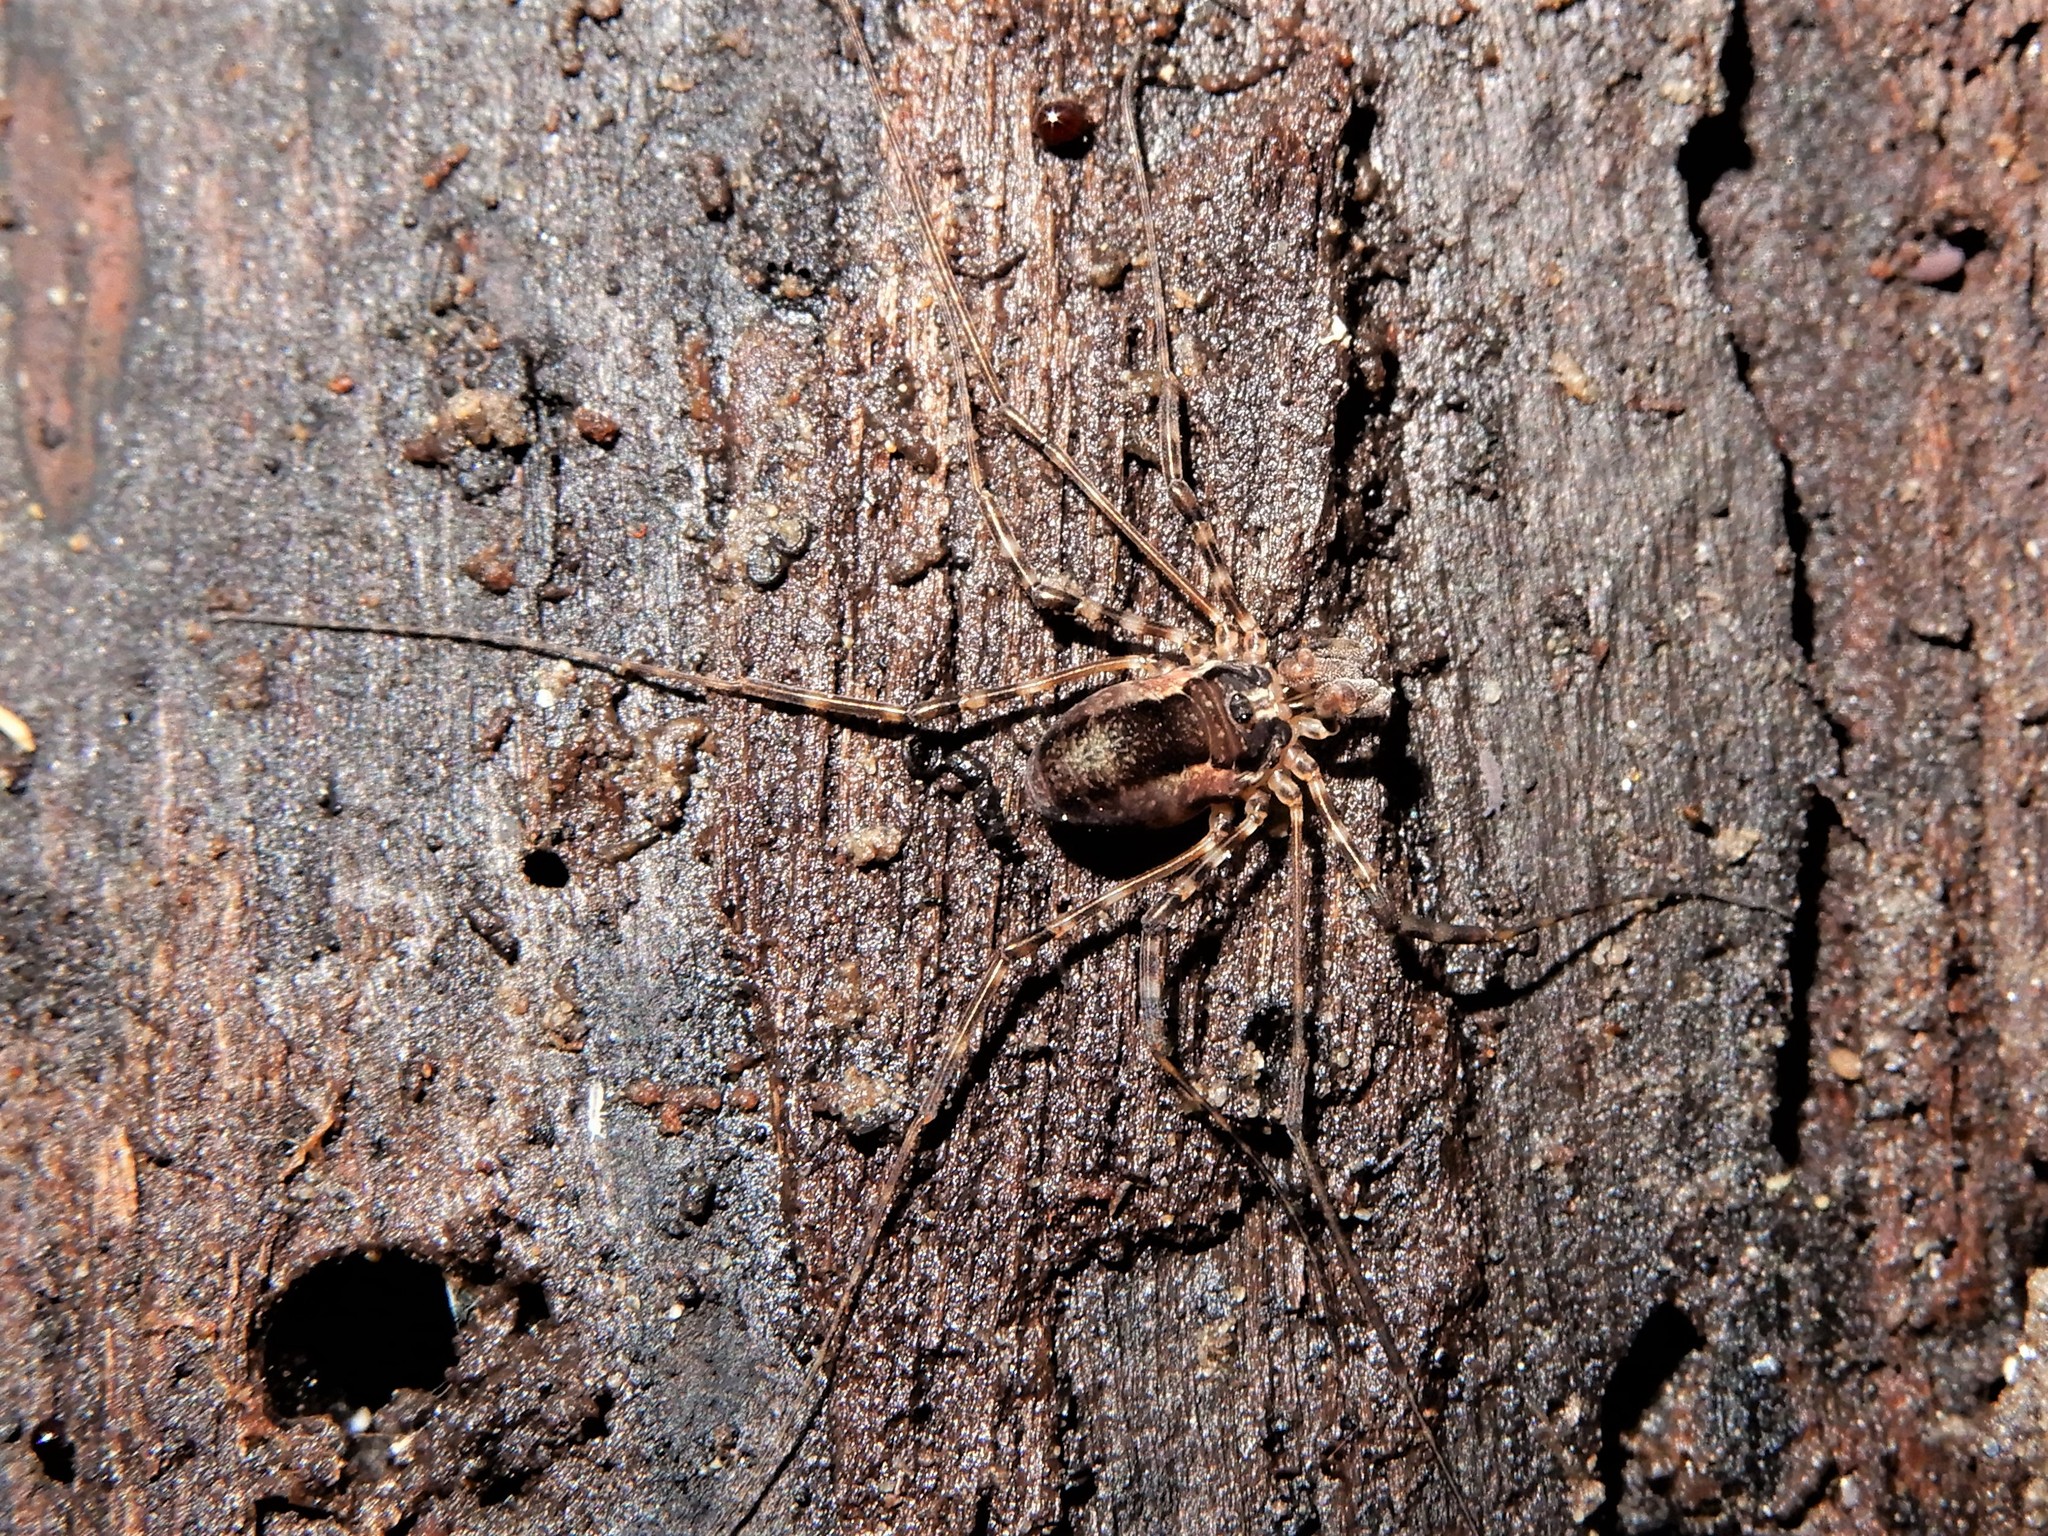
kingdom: Animalia
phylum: Arthropoda
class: Arachnida
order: Opiliones
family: Neopilionidae
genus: Megalopsalis
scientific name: Megalopsalis triascuta
